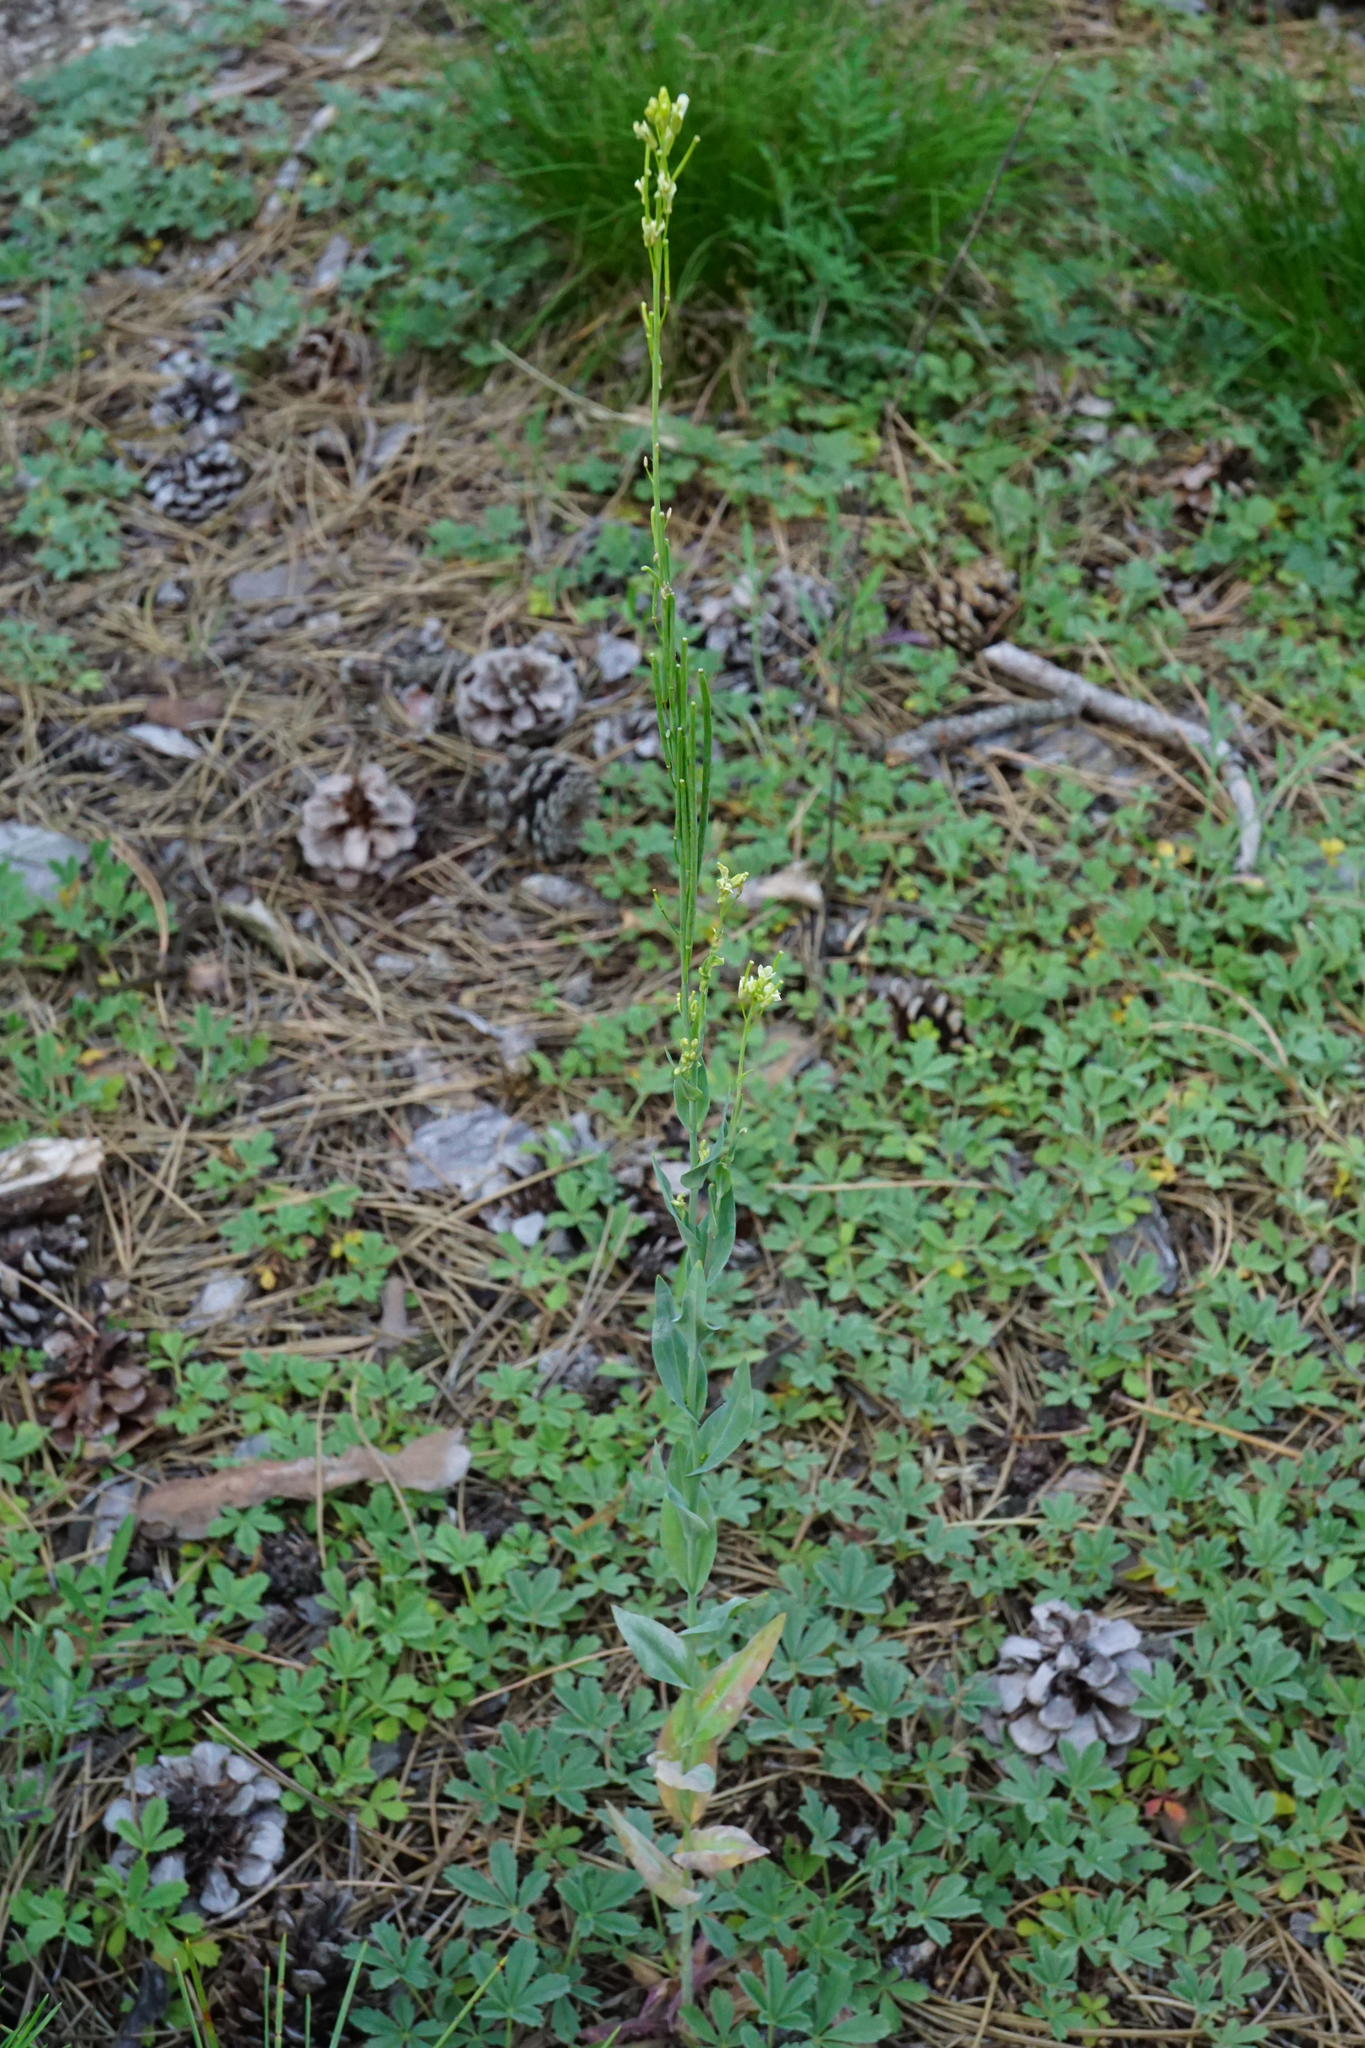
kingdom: Plantae
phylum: Tracheophyta
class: Magnoliopsida
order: Brassicales
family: Brassicaceae
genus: Turritis
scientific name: Turritis glabra
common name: Tower rockcress
